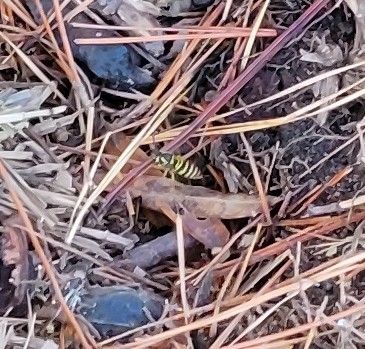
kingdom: Animalia
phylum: Arthropoda
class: Insecta
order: Hymenoptera
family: Vespidae
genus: Vespula
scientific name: Vespula maculifrons
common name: Eastern yellowjacket
